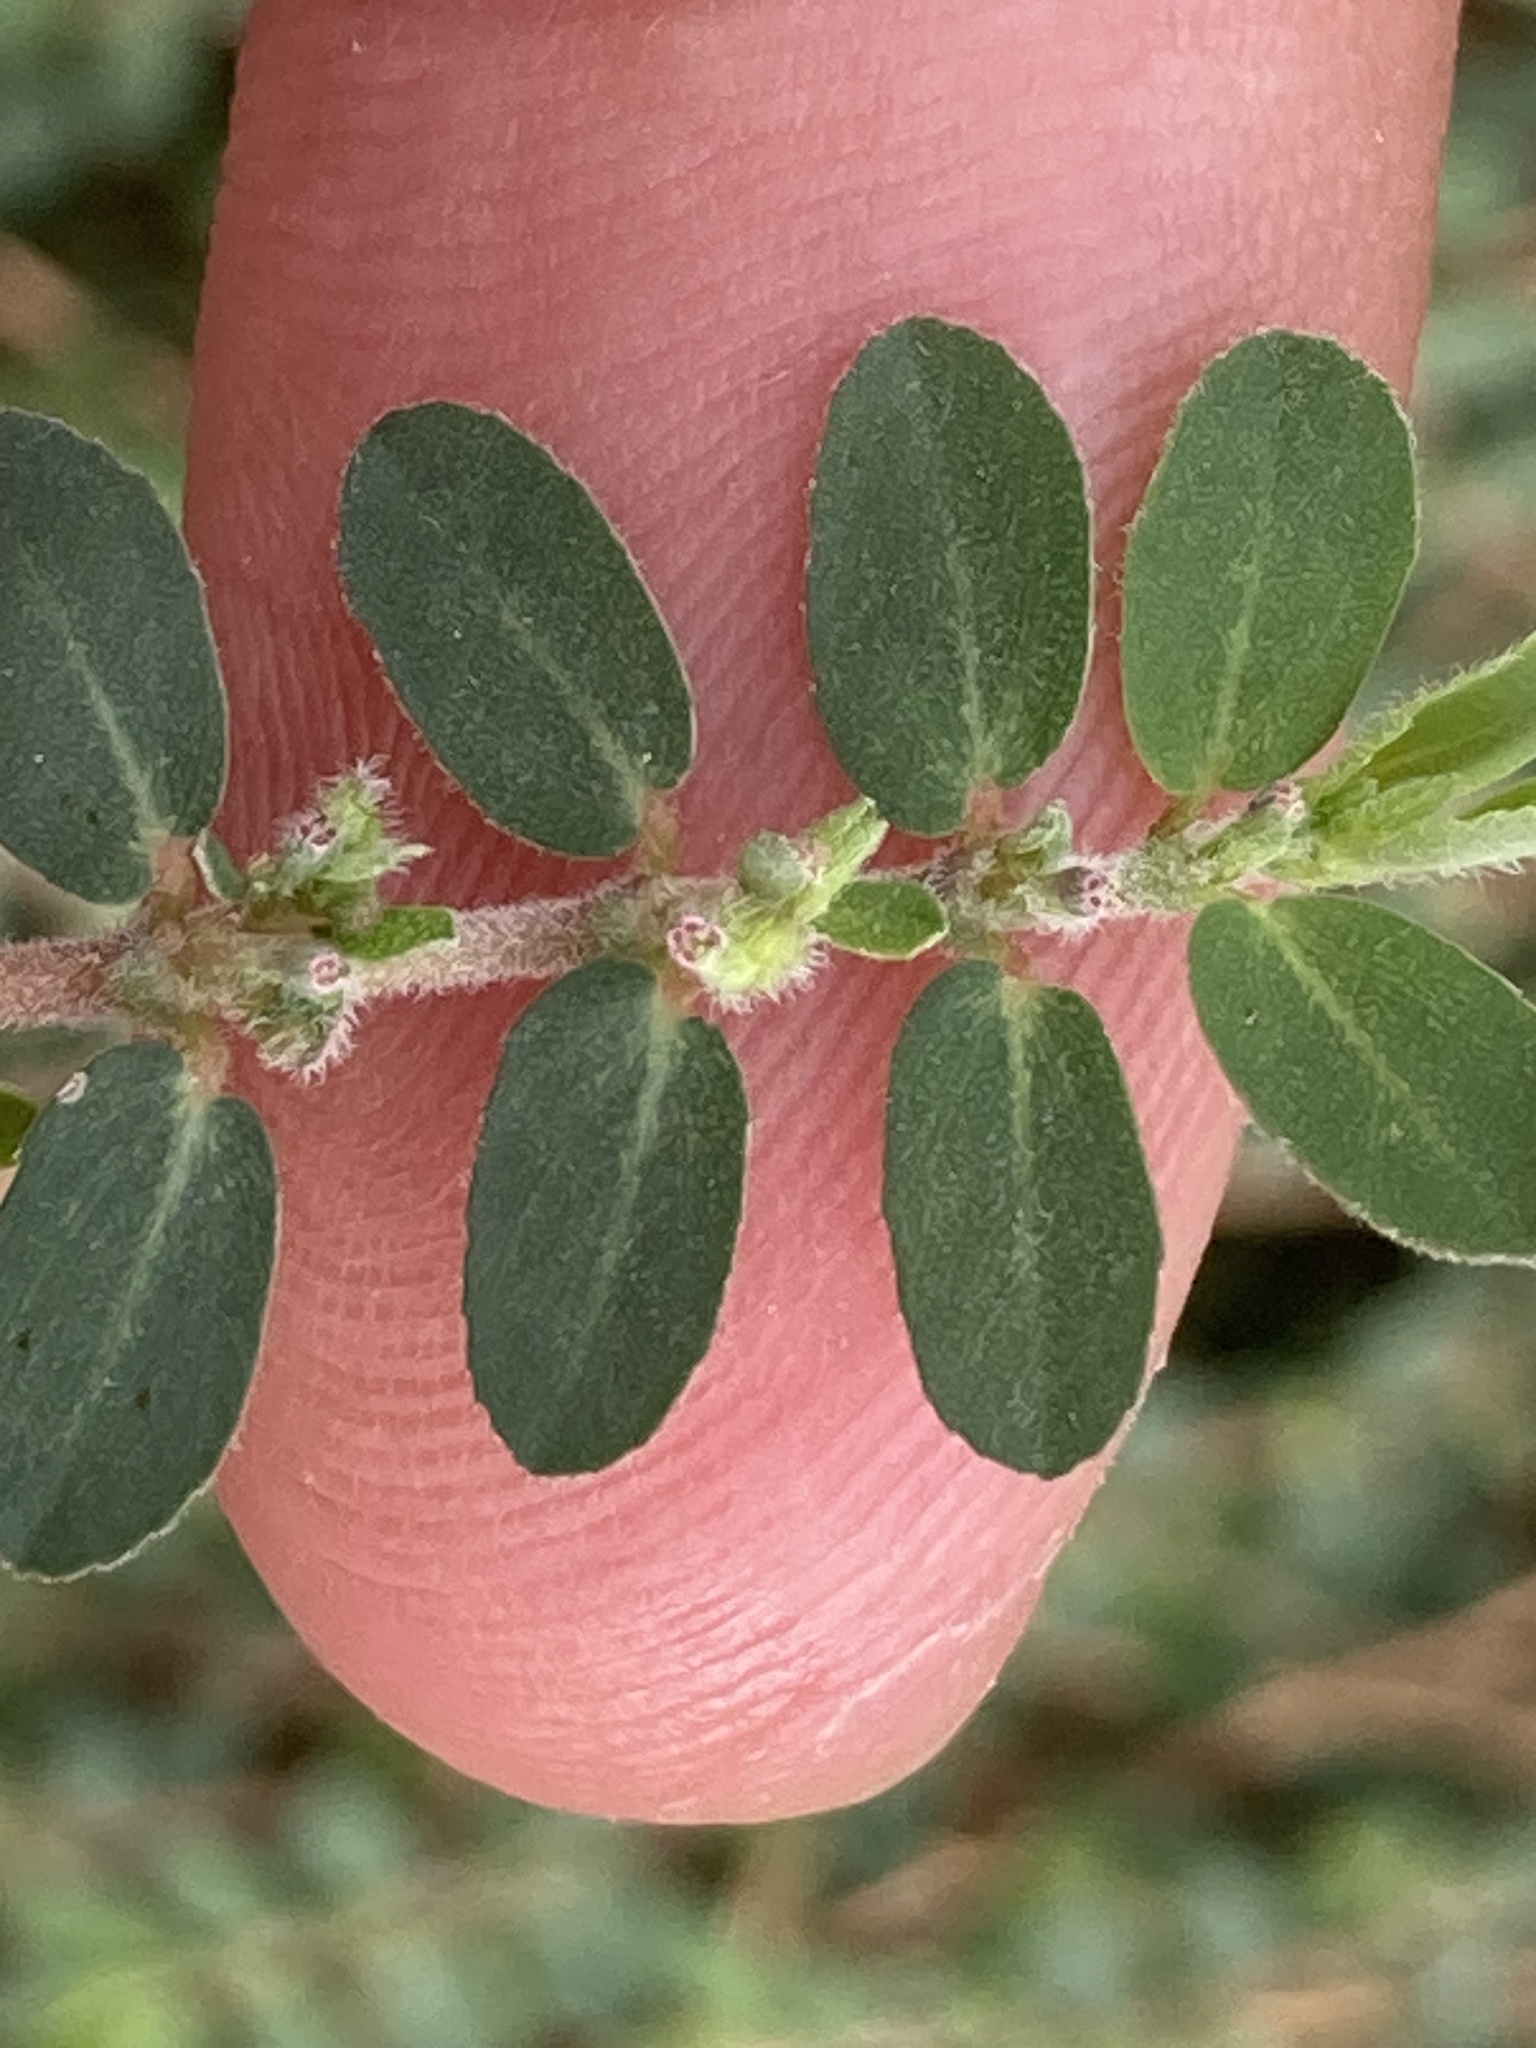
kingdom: Plantae
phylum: Tracheophyta
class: Magnoliopsida
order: Malpighiales
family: Euphorbiaceae
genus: Euphorbia
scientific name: Euphorbia prostrata
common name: Prostrate sandmat
